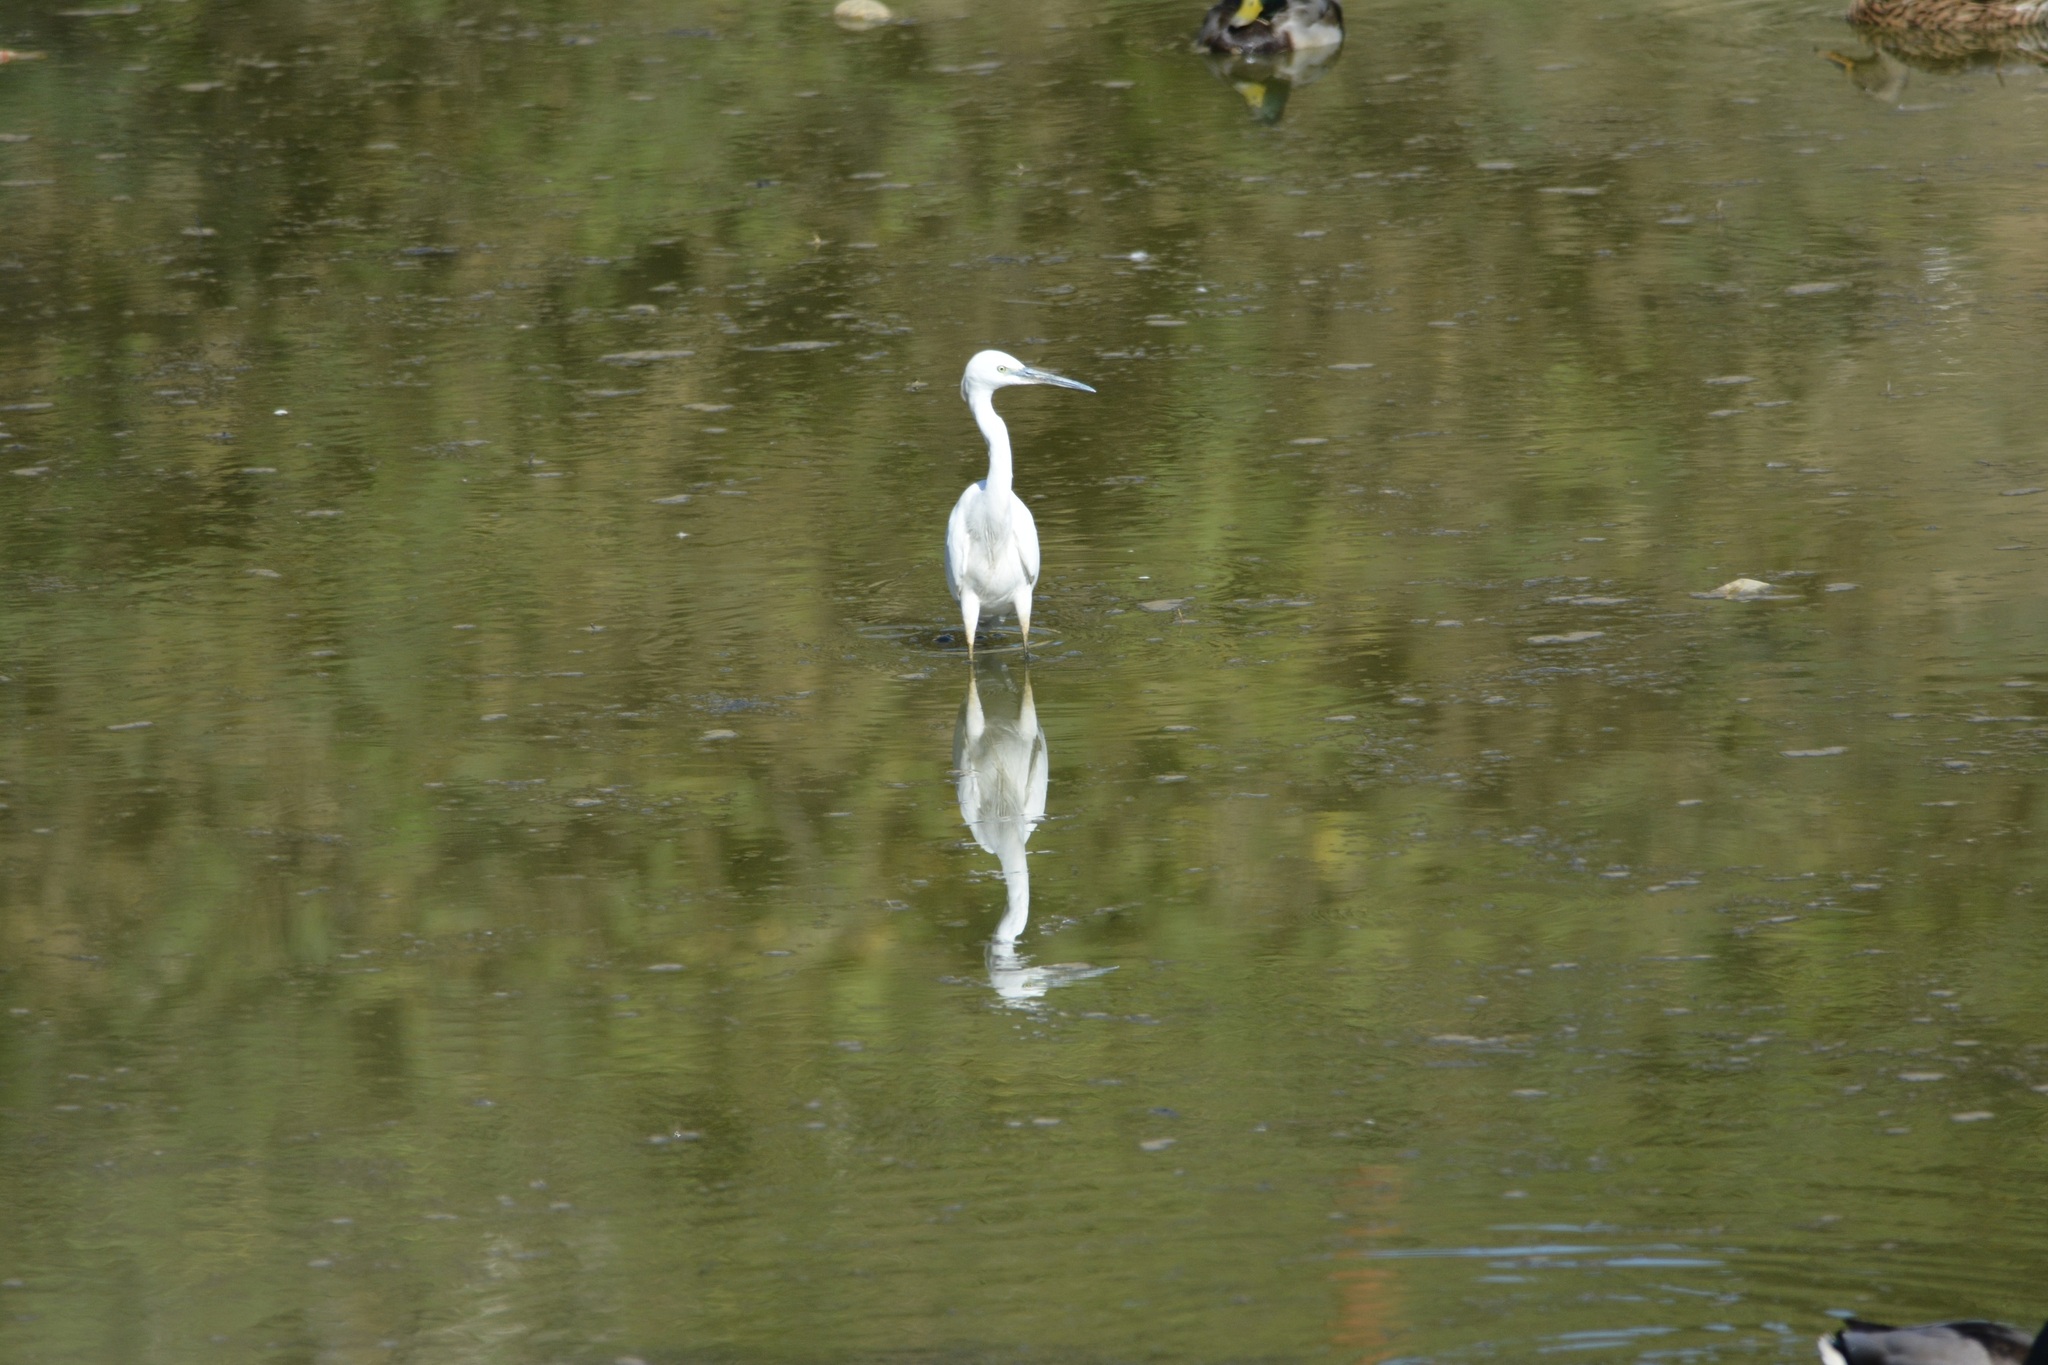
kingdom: Animalia
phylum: Chordata
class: Aves
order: Pelecaniformes
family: Ardeidae
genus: Egretta
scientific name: Egretta garzetta
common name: Little egret
